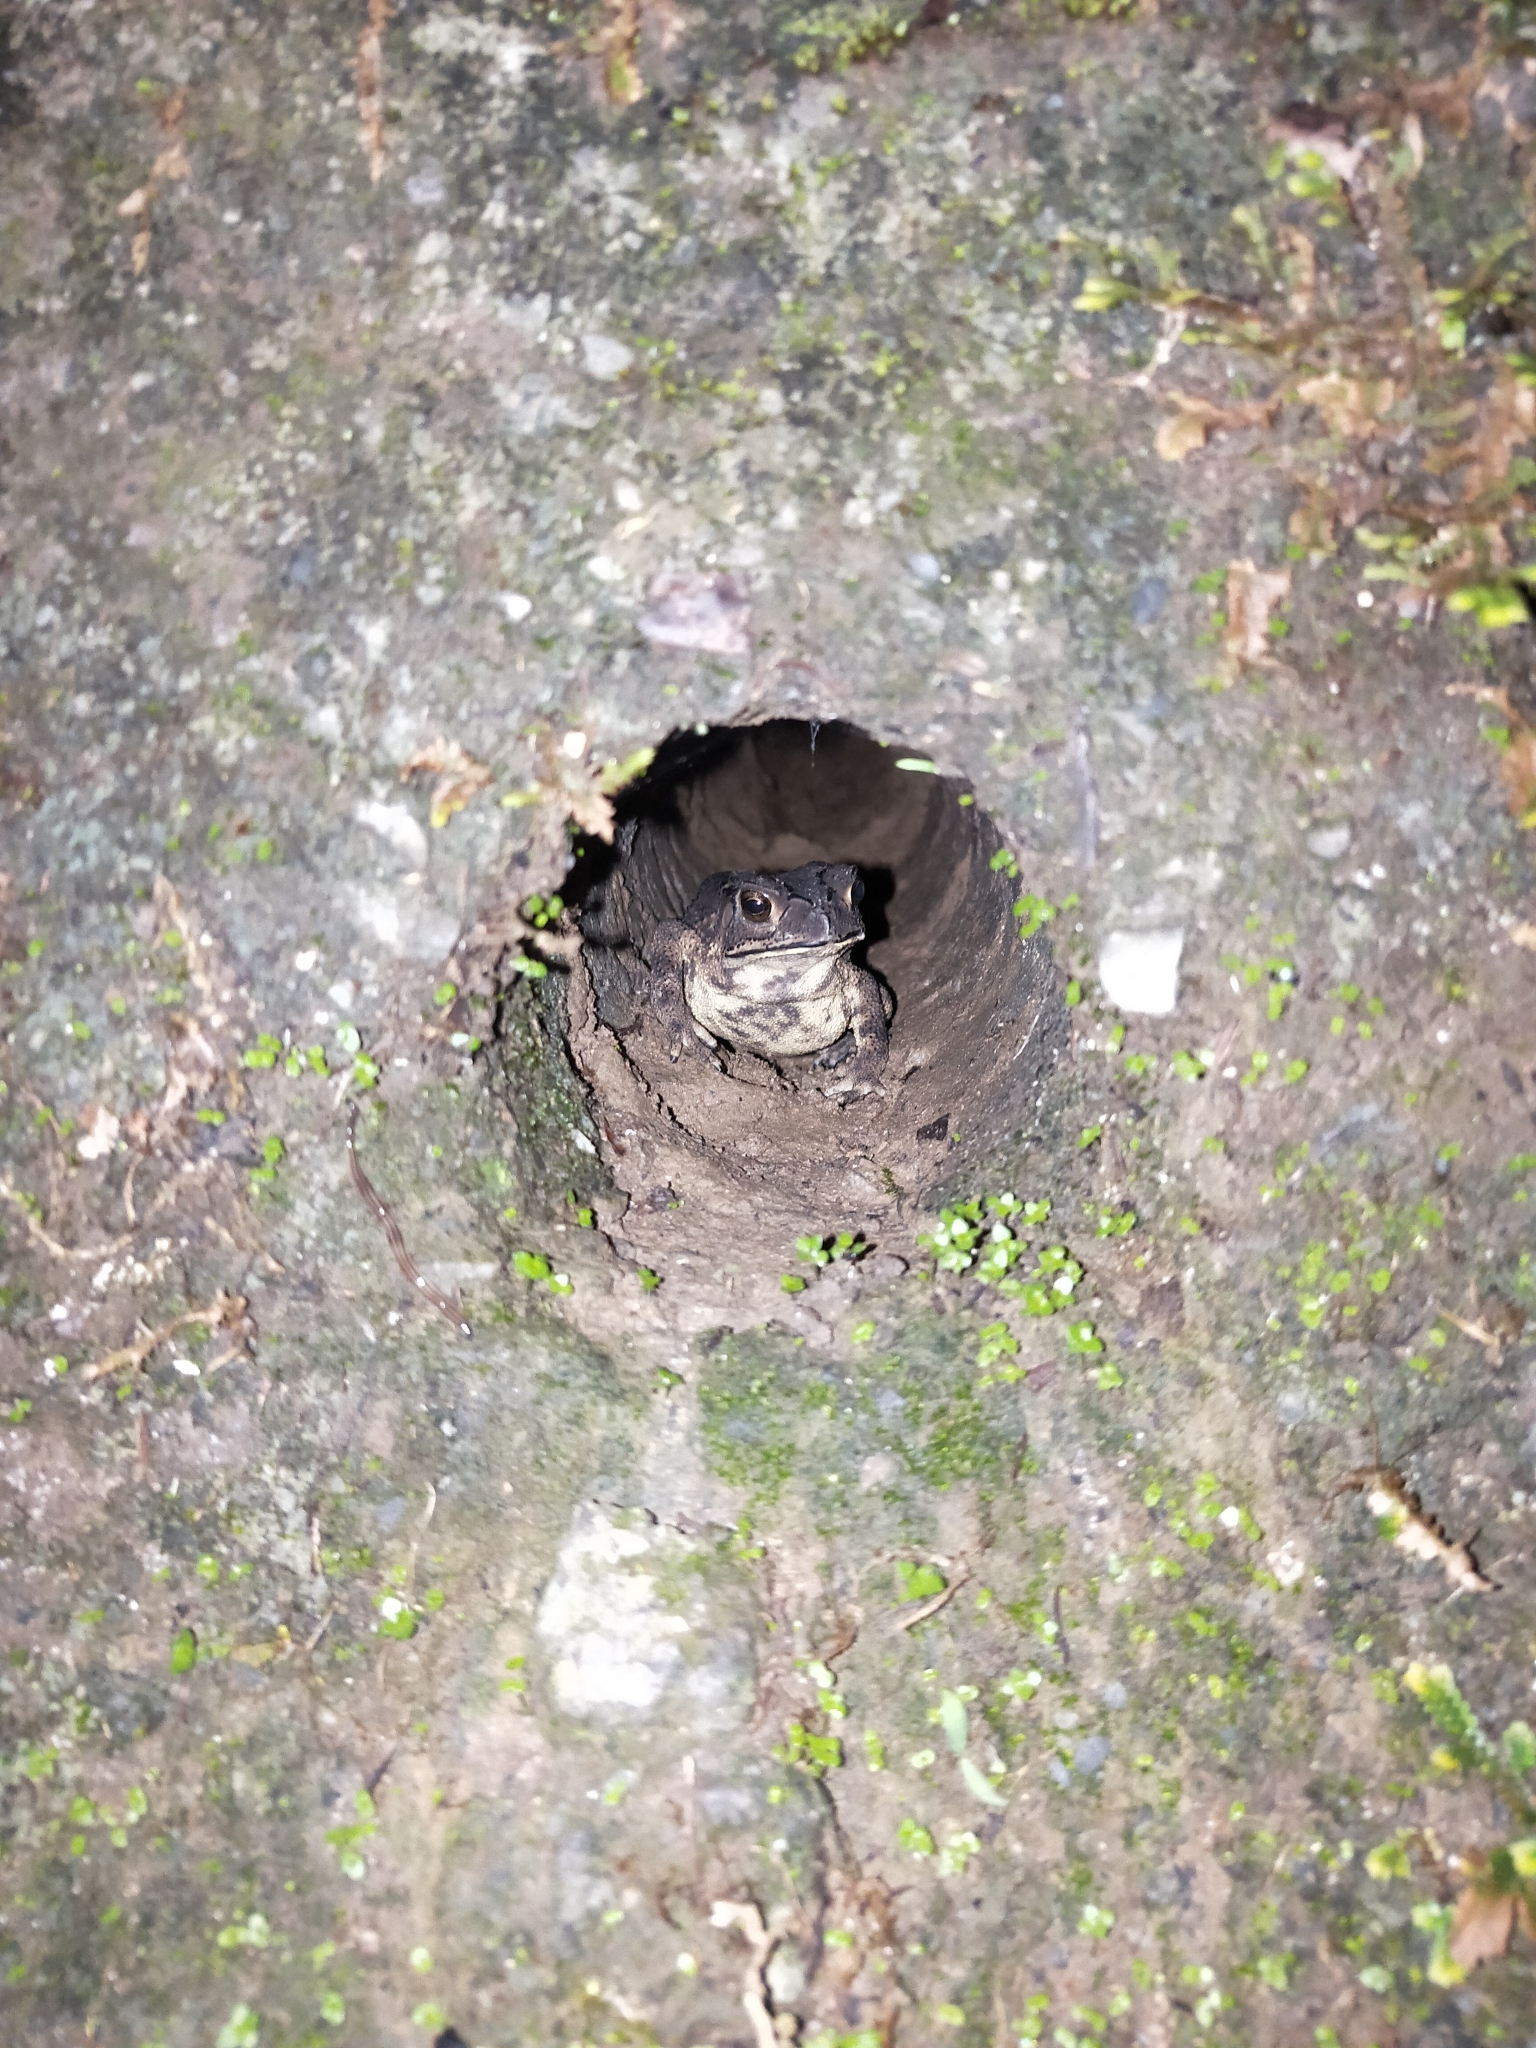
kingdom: Animalia
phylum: Chordata
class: Amphibia
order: Anura
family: Bufonidae
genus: Duttaphrynus
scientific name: Duttaphrynus melanostictus
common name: Common sunda toad
